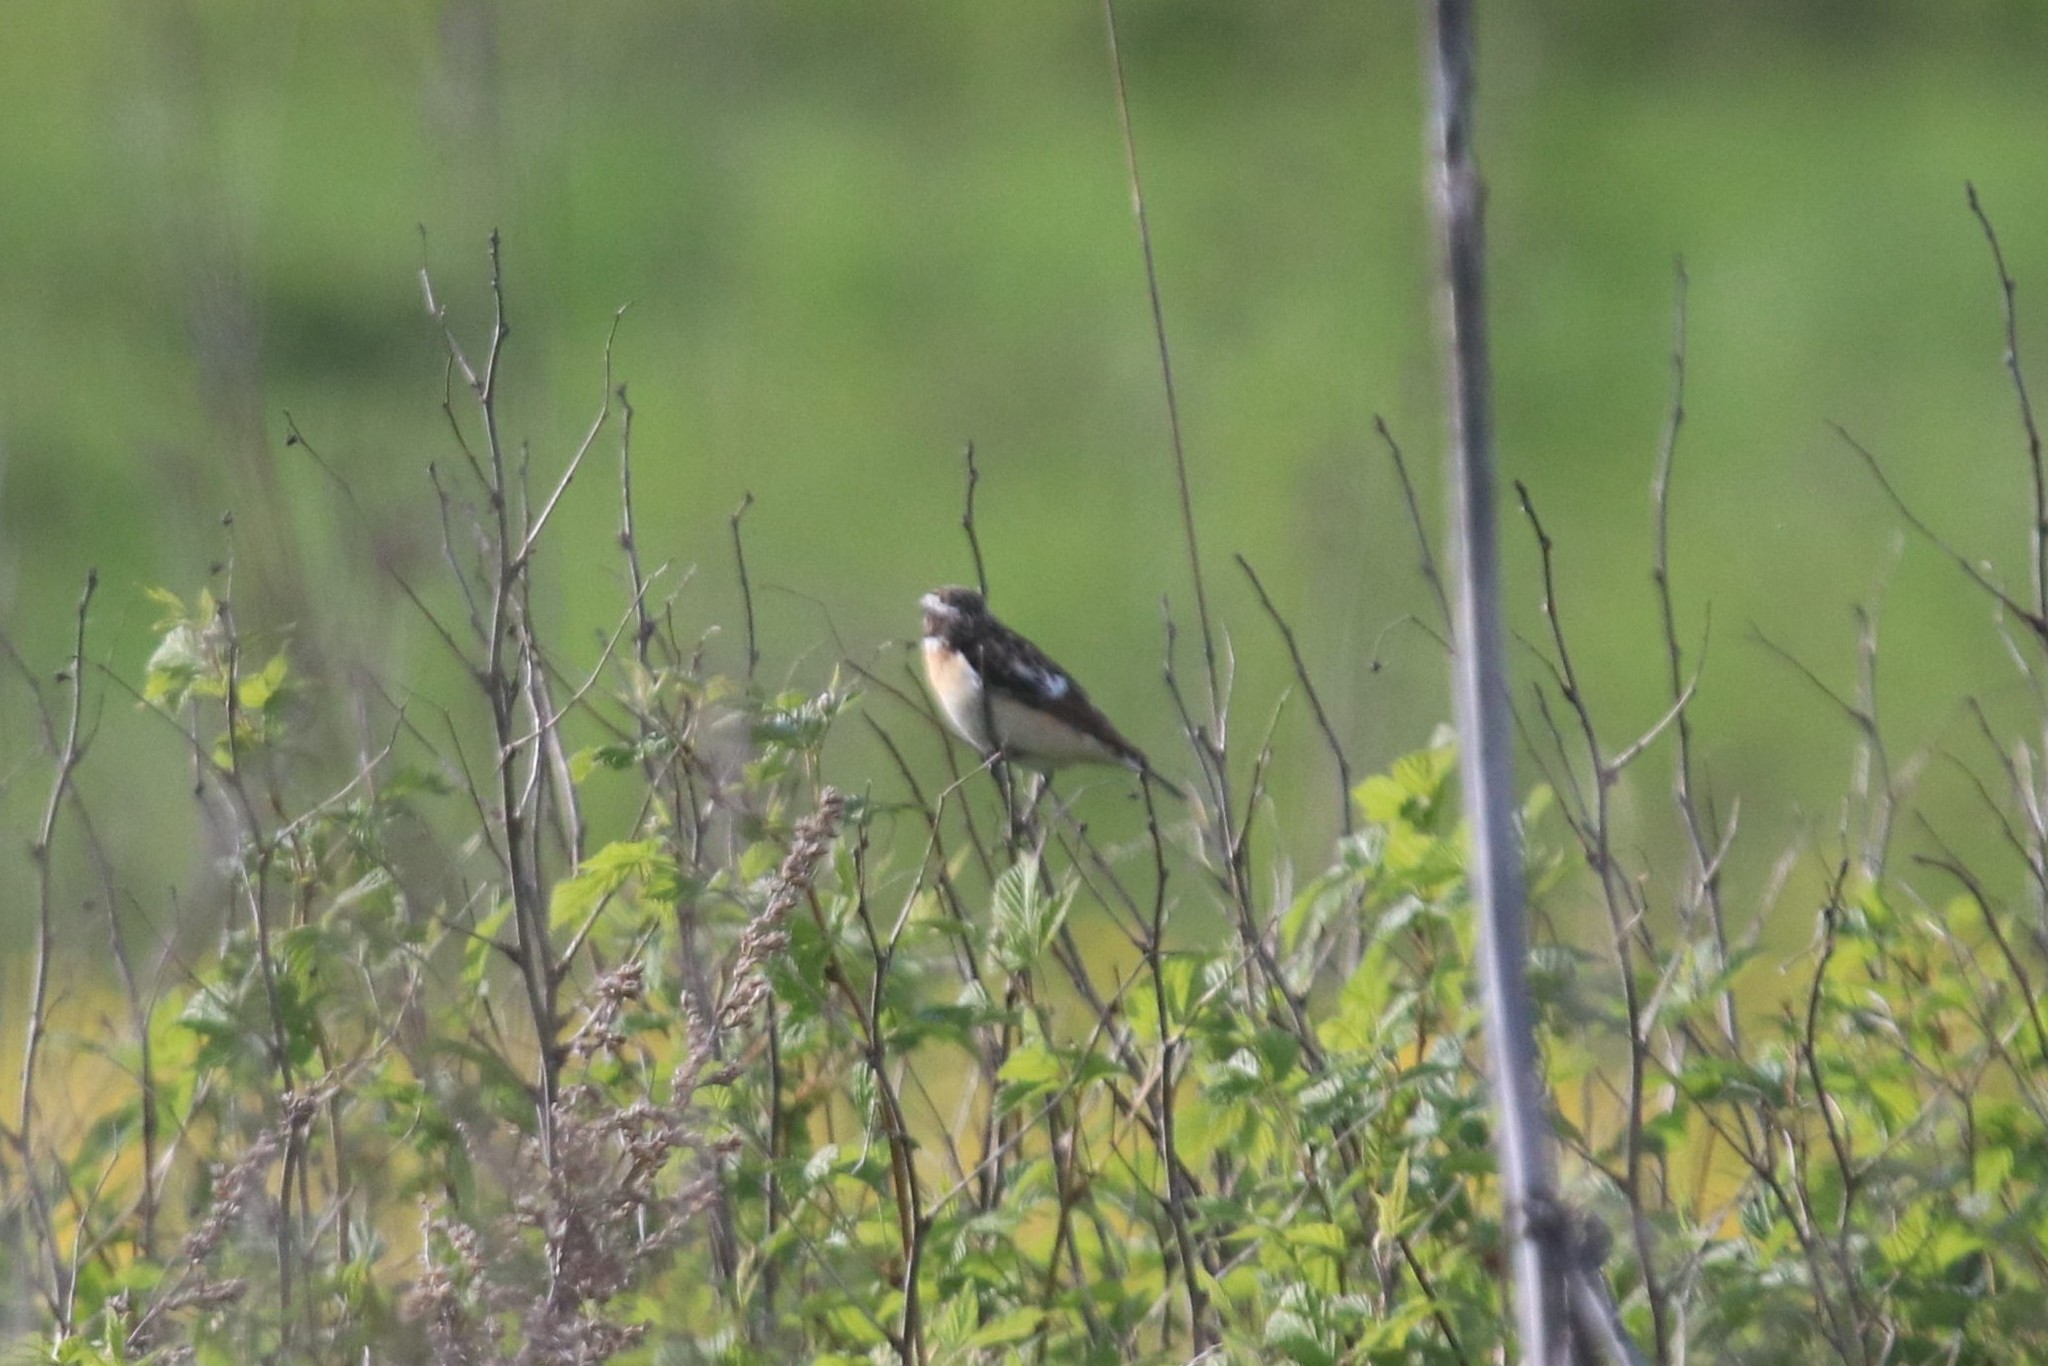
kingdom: Animalia
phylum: Chordata
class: Aves
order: Passeriformes
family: Muscicapidae
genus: Saxicola
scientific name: Saxicola rubetra
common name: Whinchat
